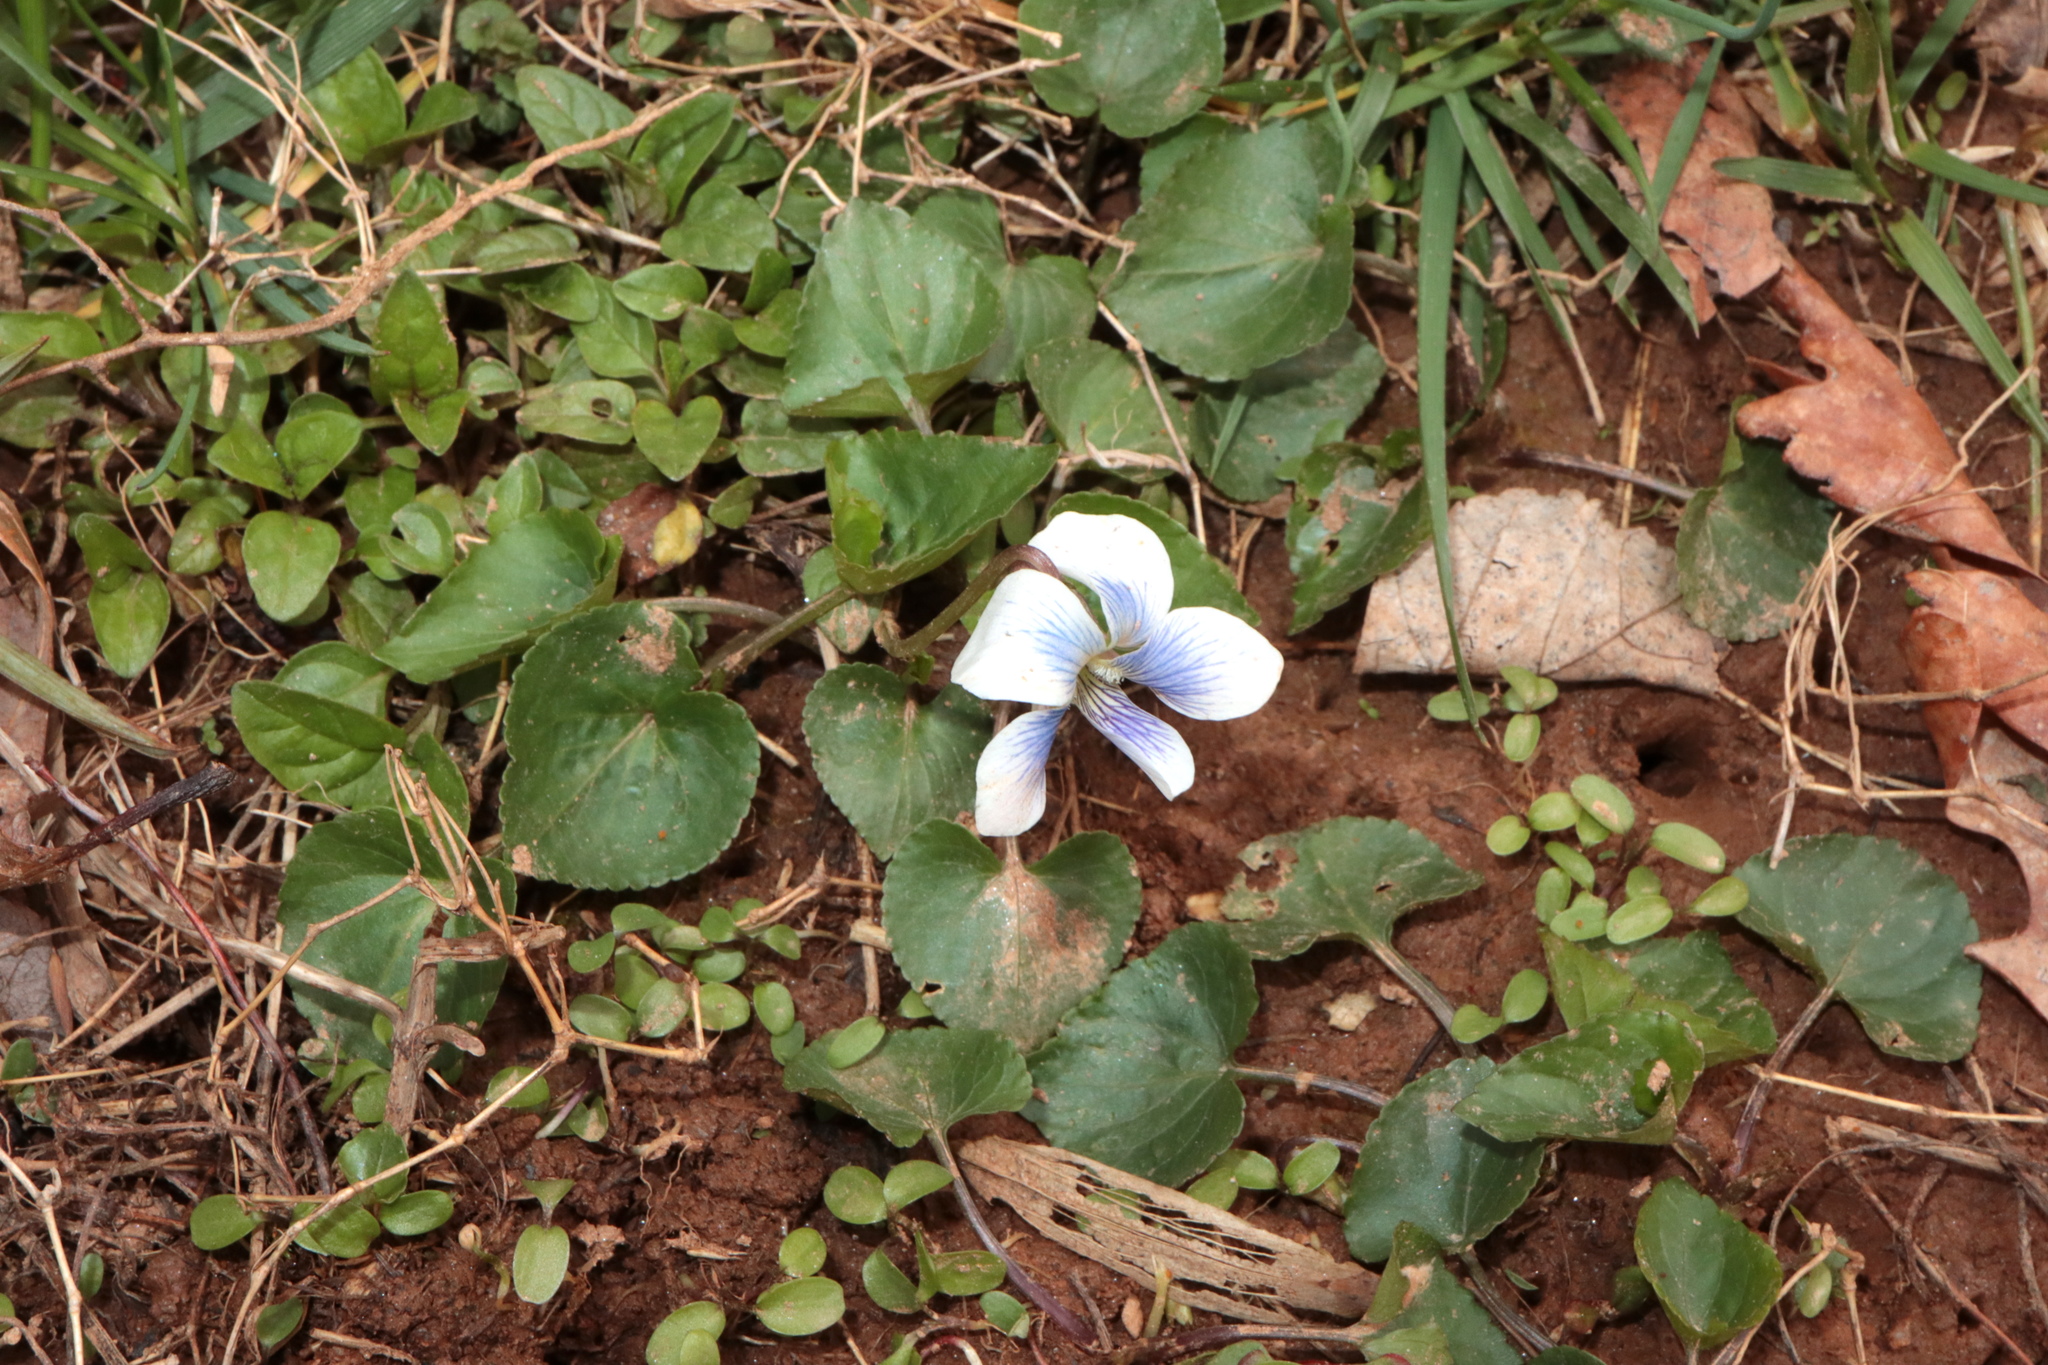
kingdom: Plantae
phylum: Tracheophyta
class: Magnoliopsida
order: Malpighiales
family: Violaceae
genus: Viola
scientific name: Viola sororia
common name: Dooryard violet
